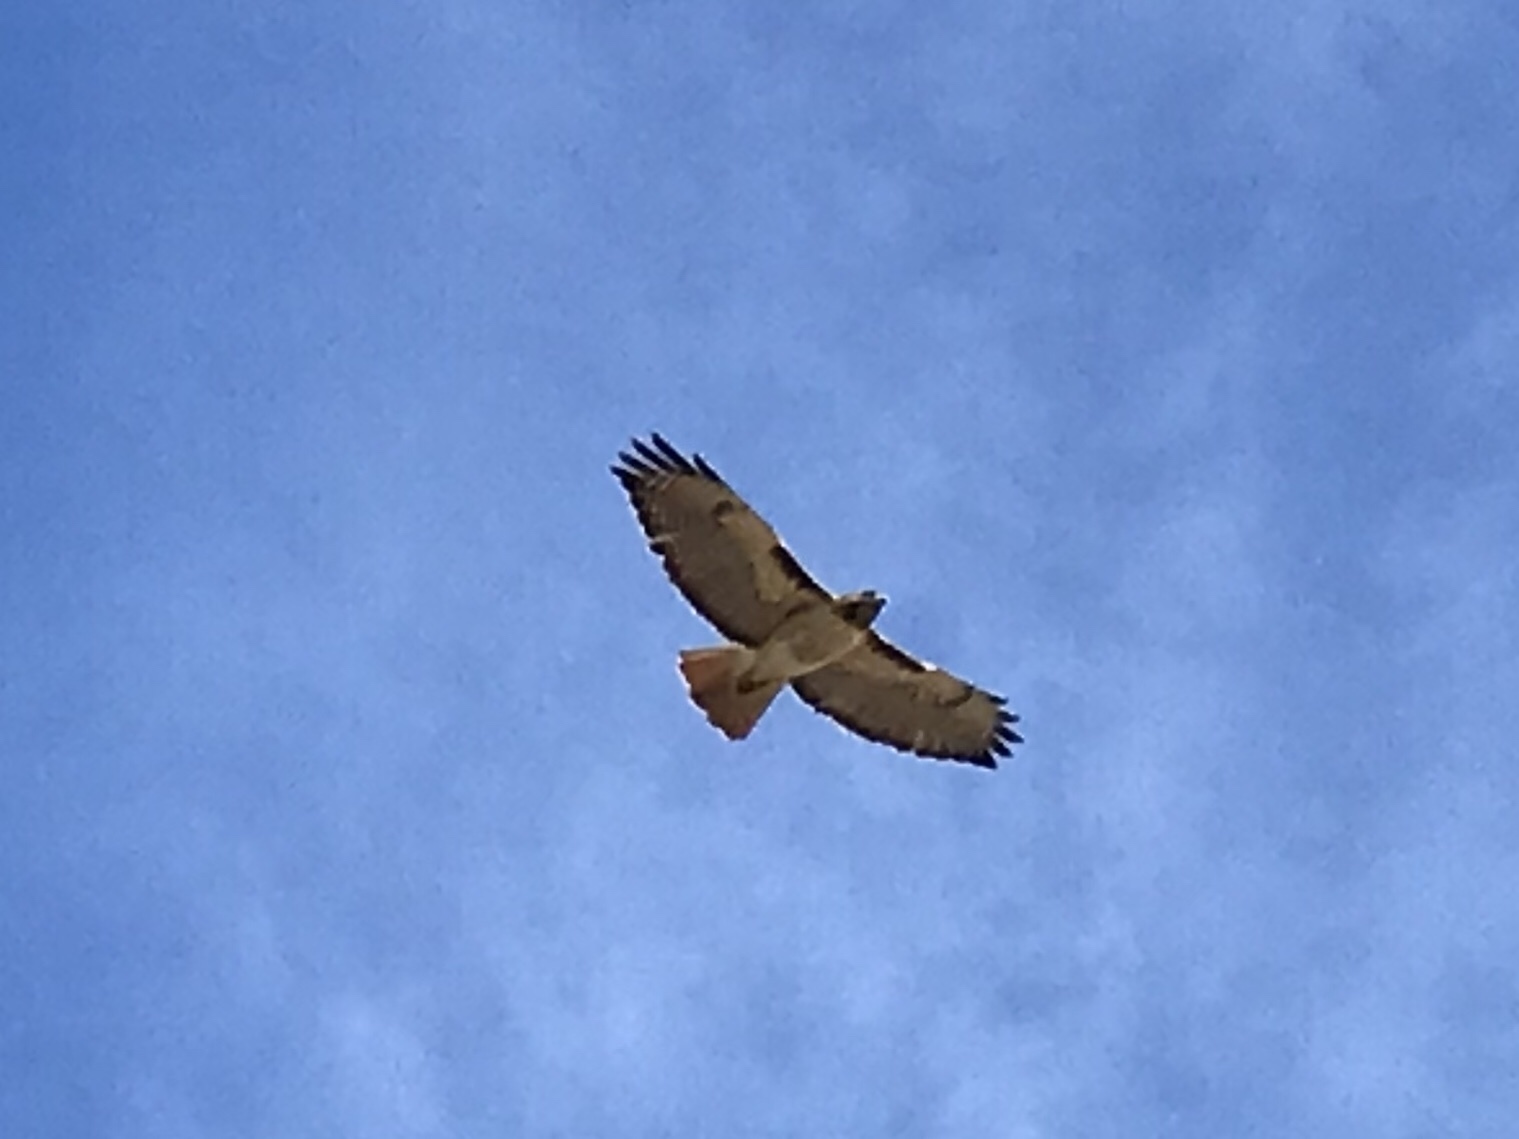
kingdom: Animalia
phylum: Chordata
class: Aves
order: Accipitriformes
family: Accipitridae
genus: Buteo
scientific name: Buteo jamaicensis
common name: Red-tailed hawk
